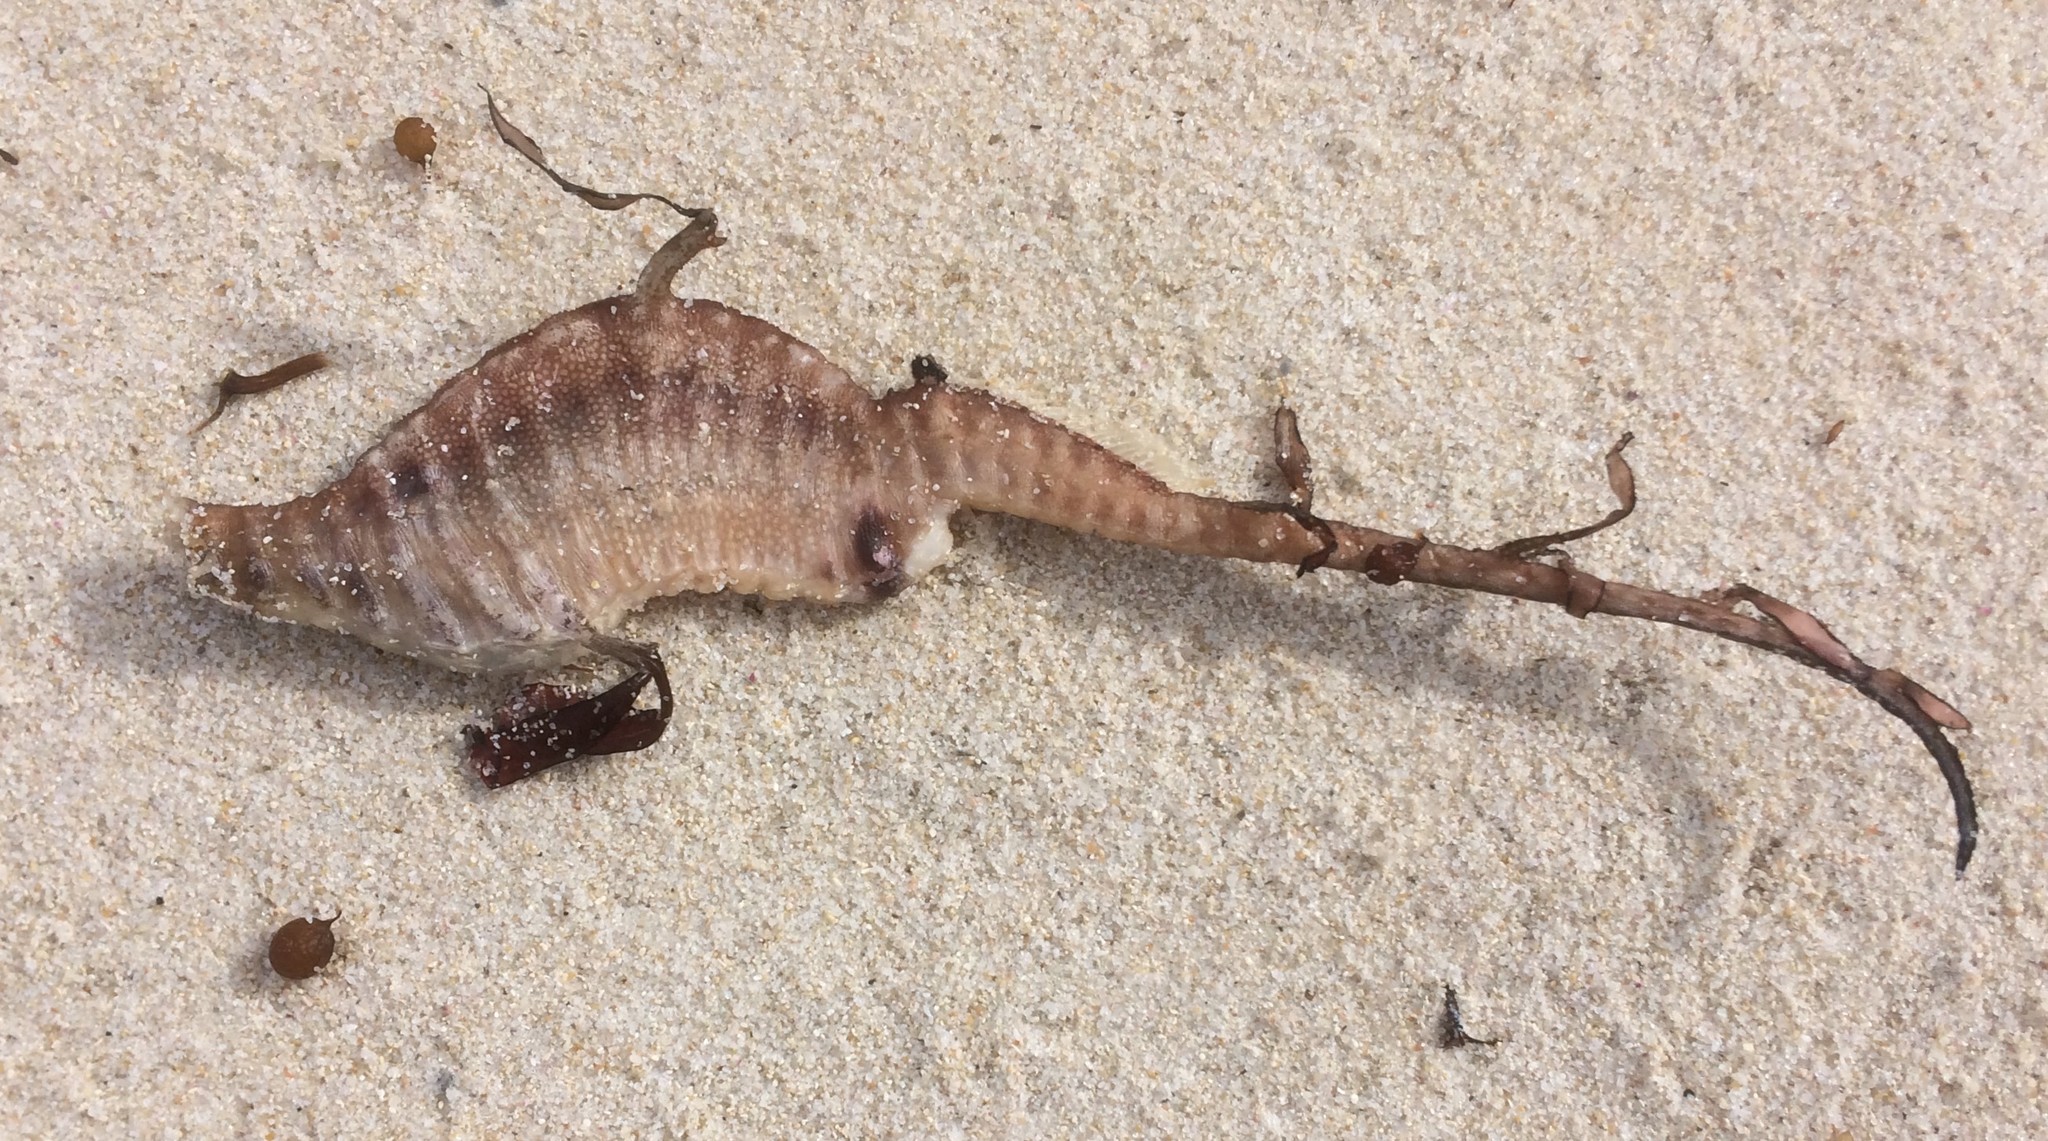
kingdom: Animalia
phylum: Chordata
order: Syngnathiformes
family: Syngnathidae
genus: Phyllopteryx
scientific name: Phyllopteryx taeniolatus
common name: Common seadragon
